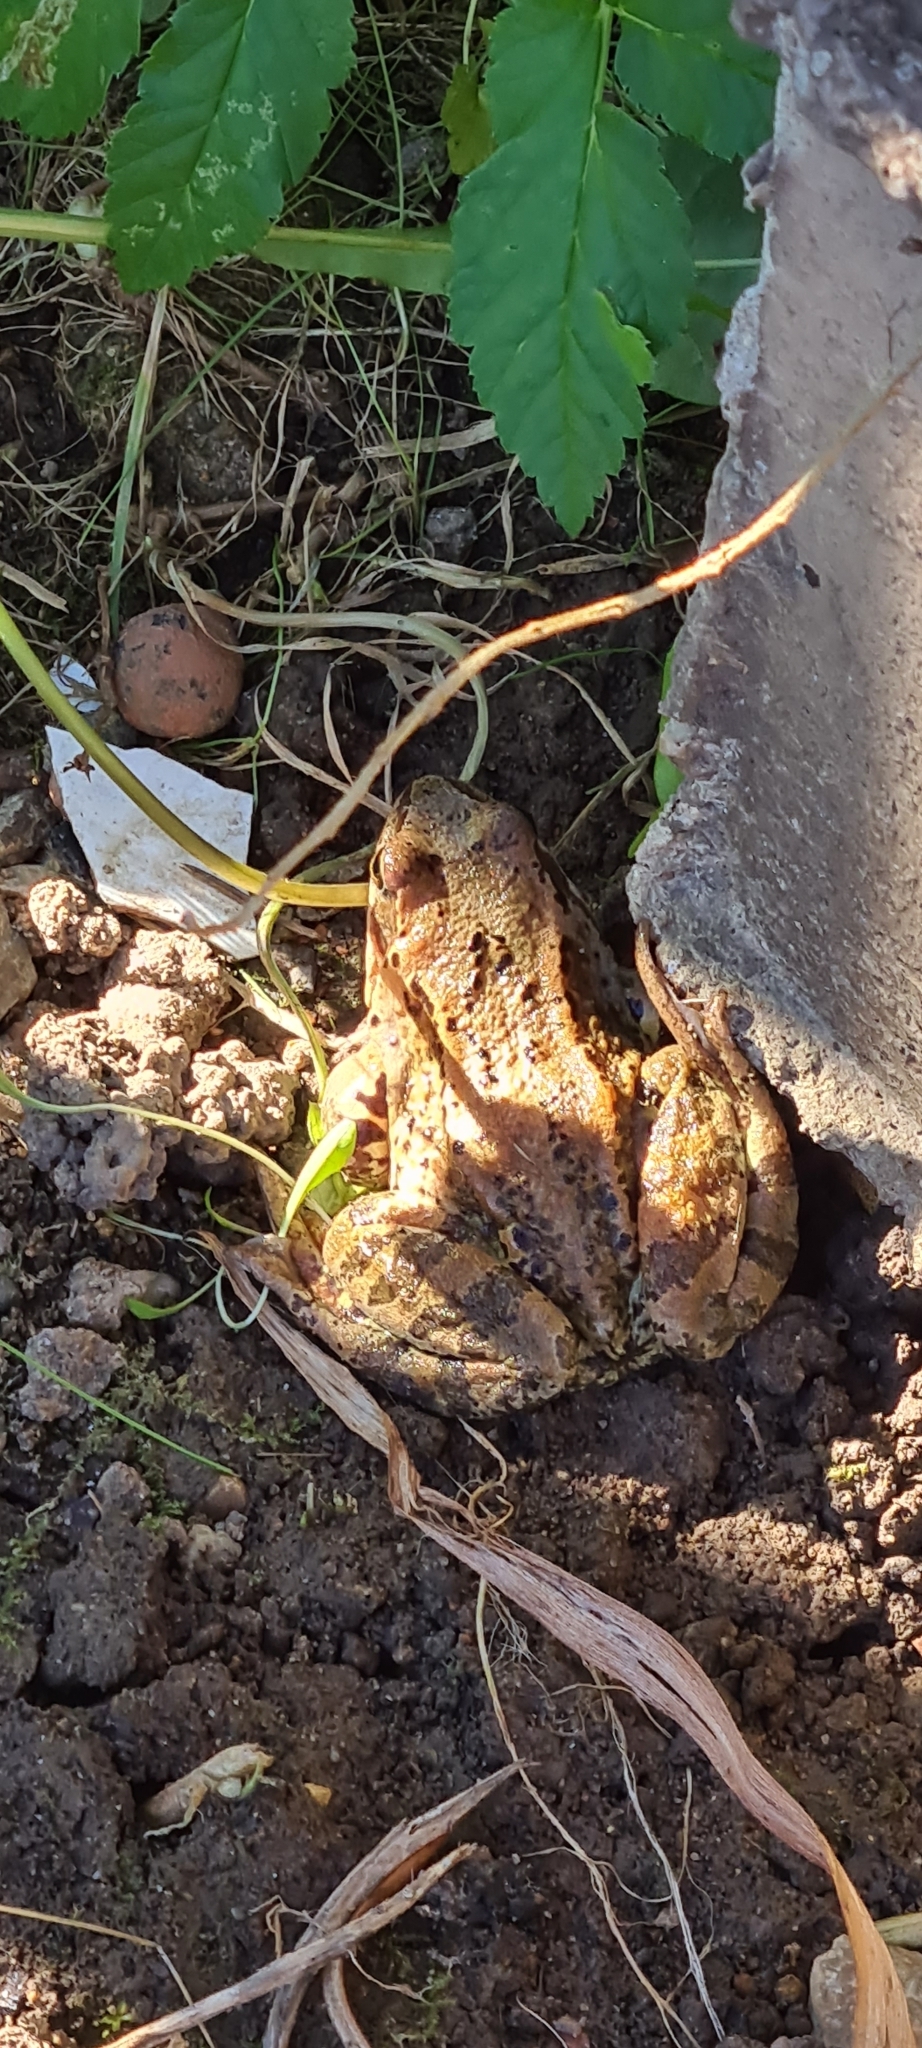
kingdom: Animalia
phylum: Chordata
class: Amphibia
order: Anura
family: Ranidae
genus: Rana
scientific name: Rana temporaria
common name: Common frog
